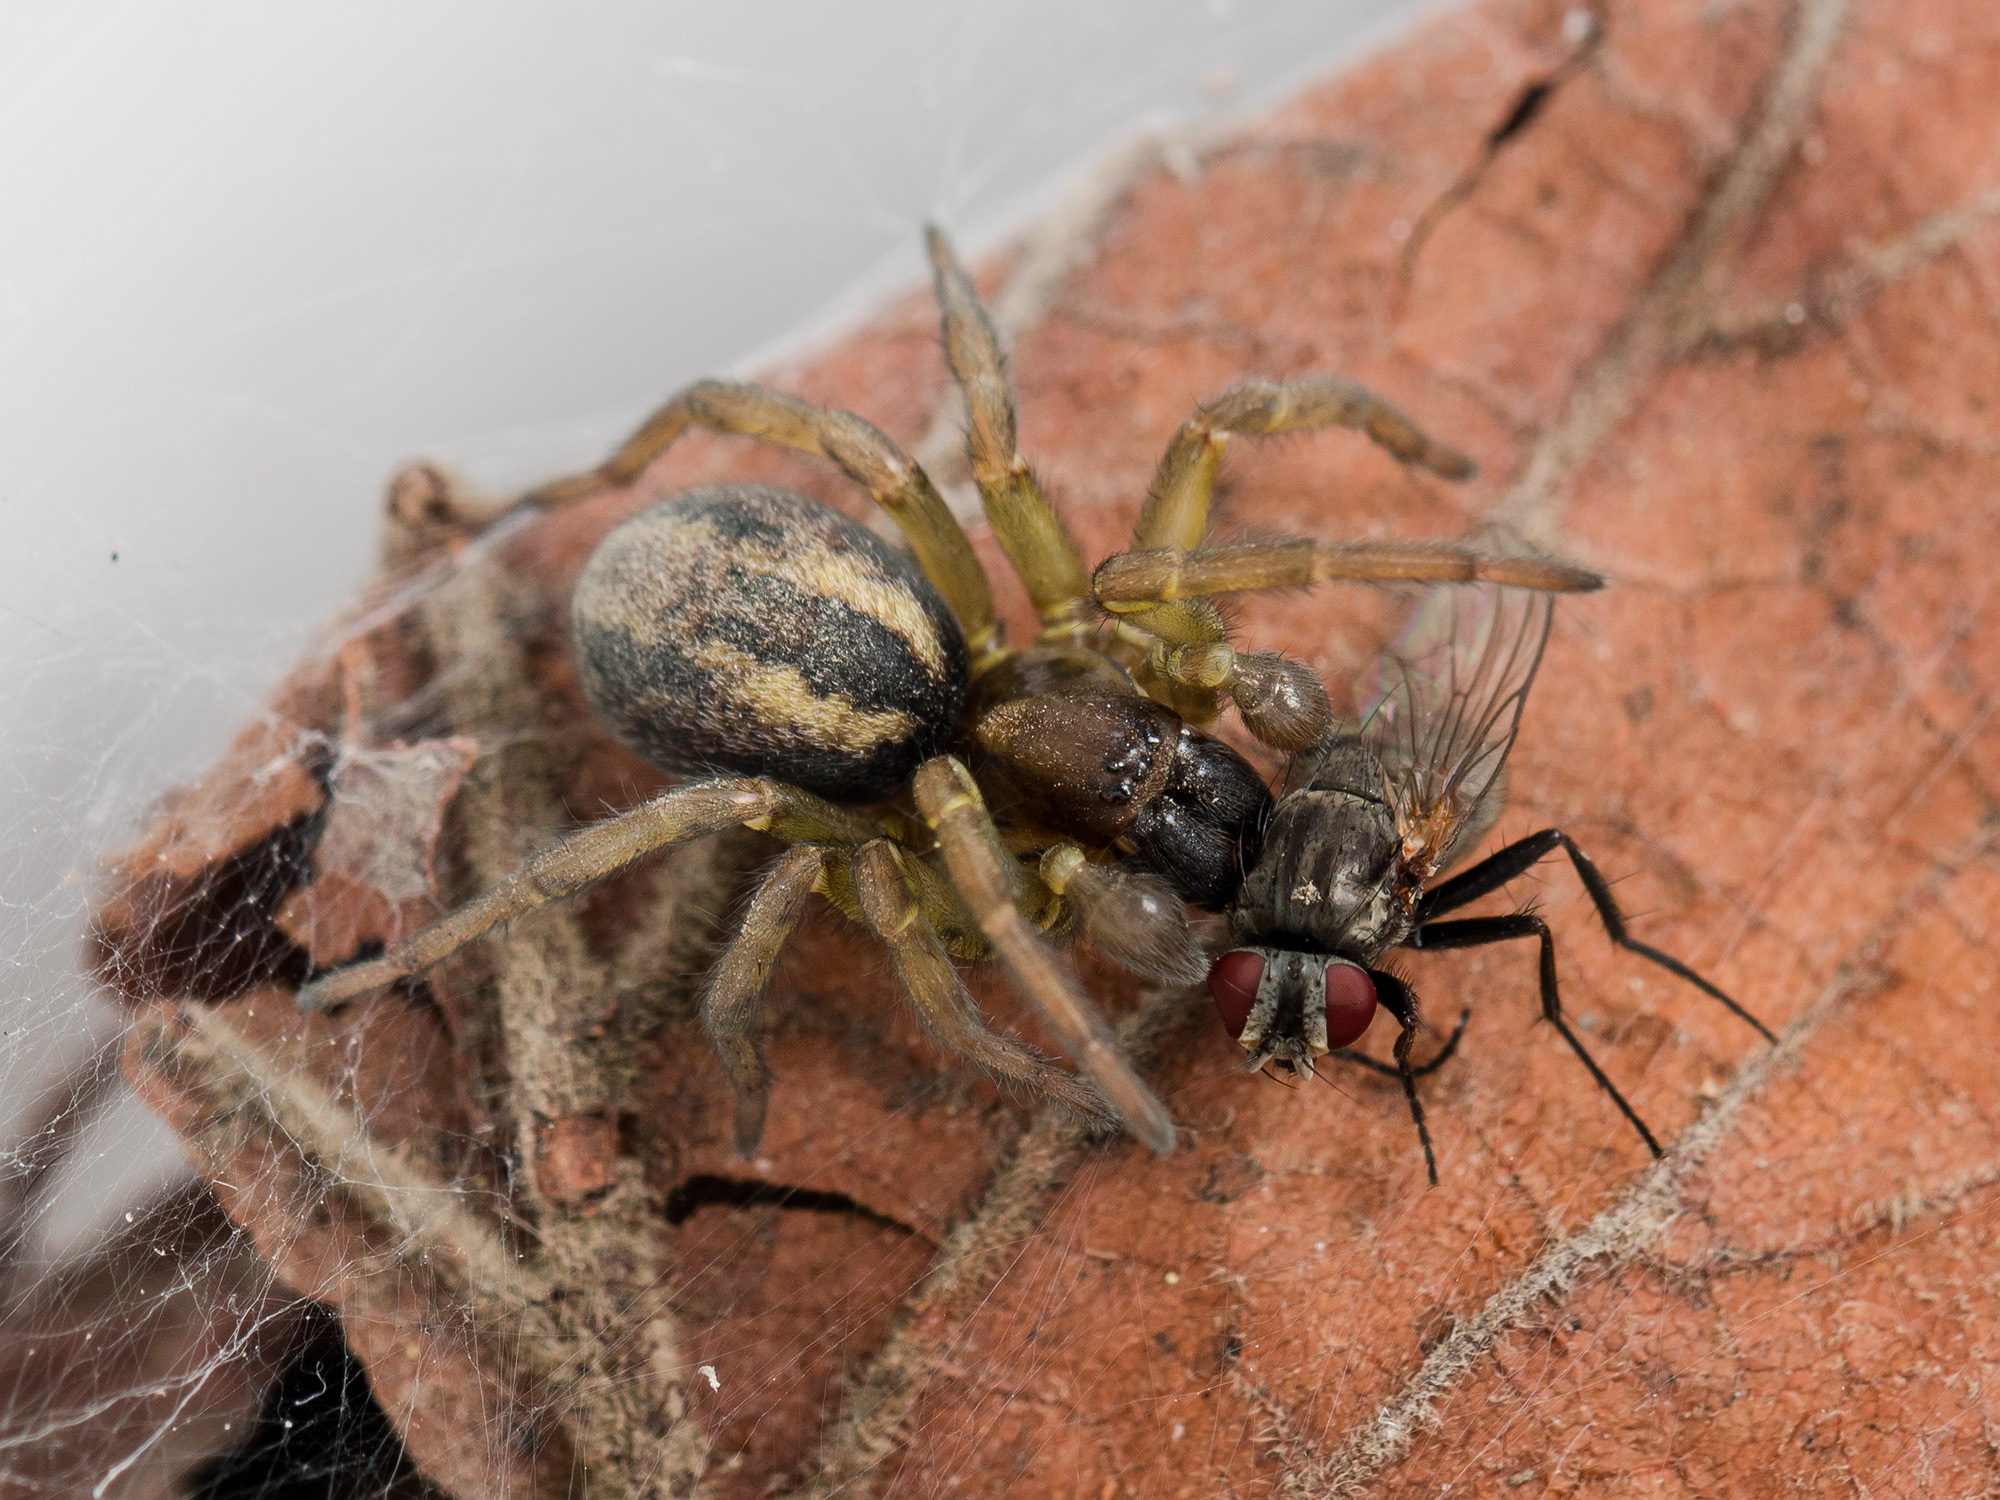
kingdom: Animalia
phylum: Arthropoda
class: Arachnida
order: Araneae
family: Amaurobiidae
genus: Arctobius
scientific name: Arctobius agelenoides
